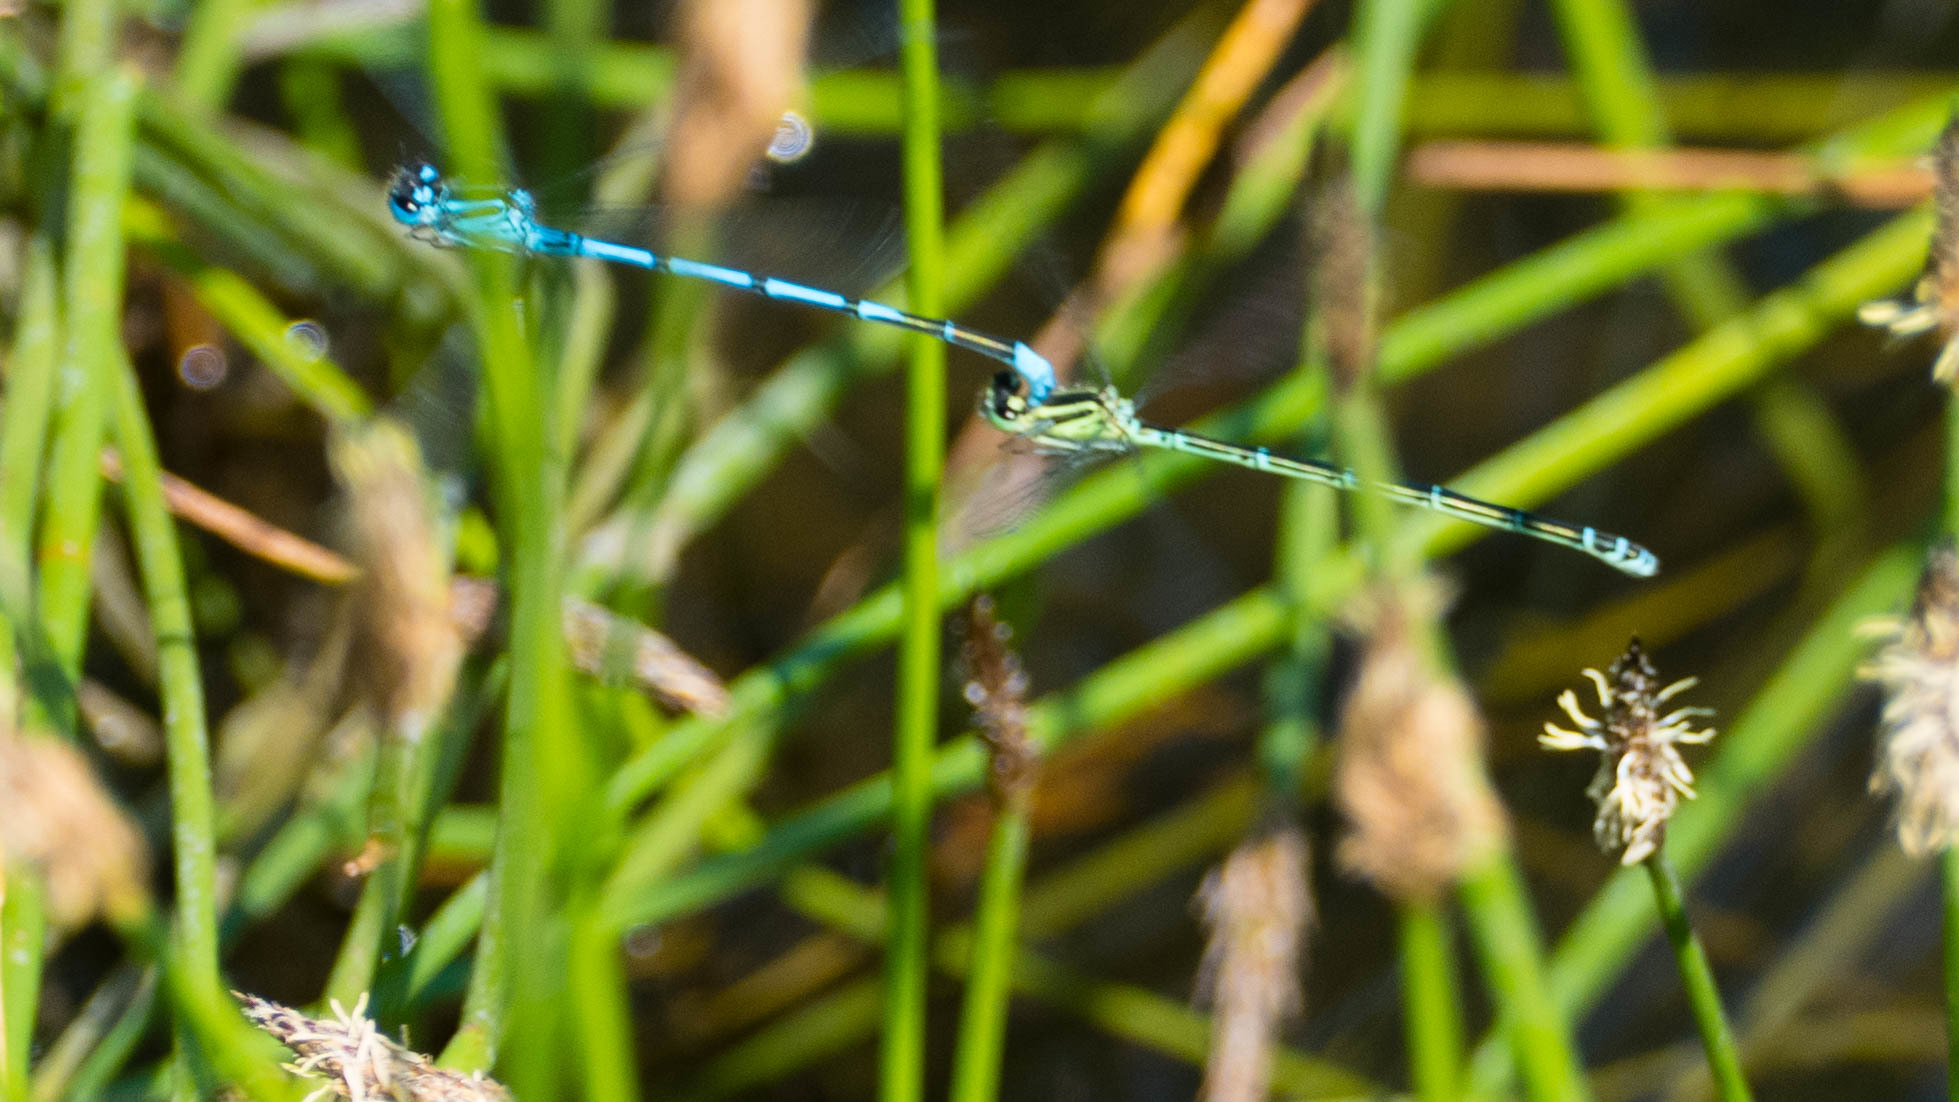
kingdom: Animalia
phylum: Arthropoda
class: Insecta
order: Odonata
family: Coenagrionidae
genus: Coenagrion
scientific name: Coenagrion puella
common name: Azure damselfly
